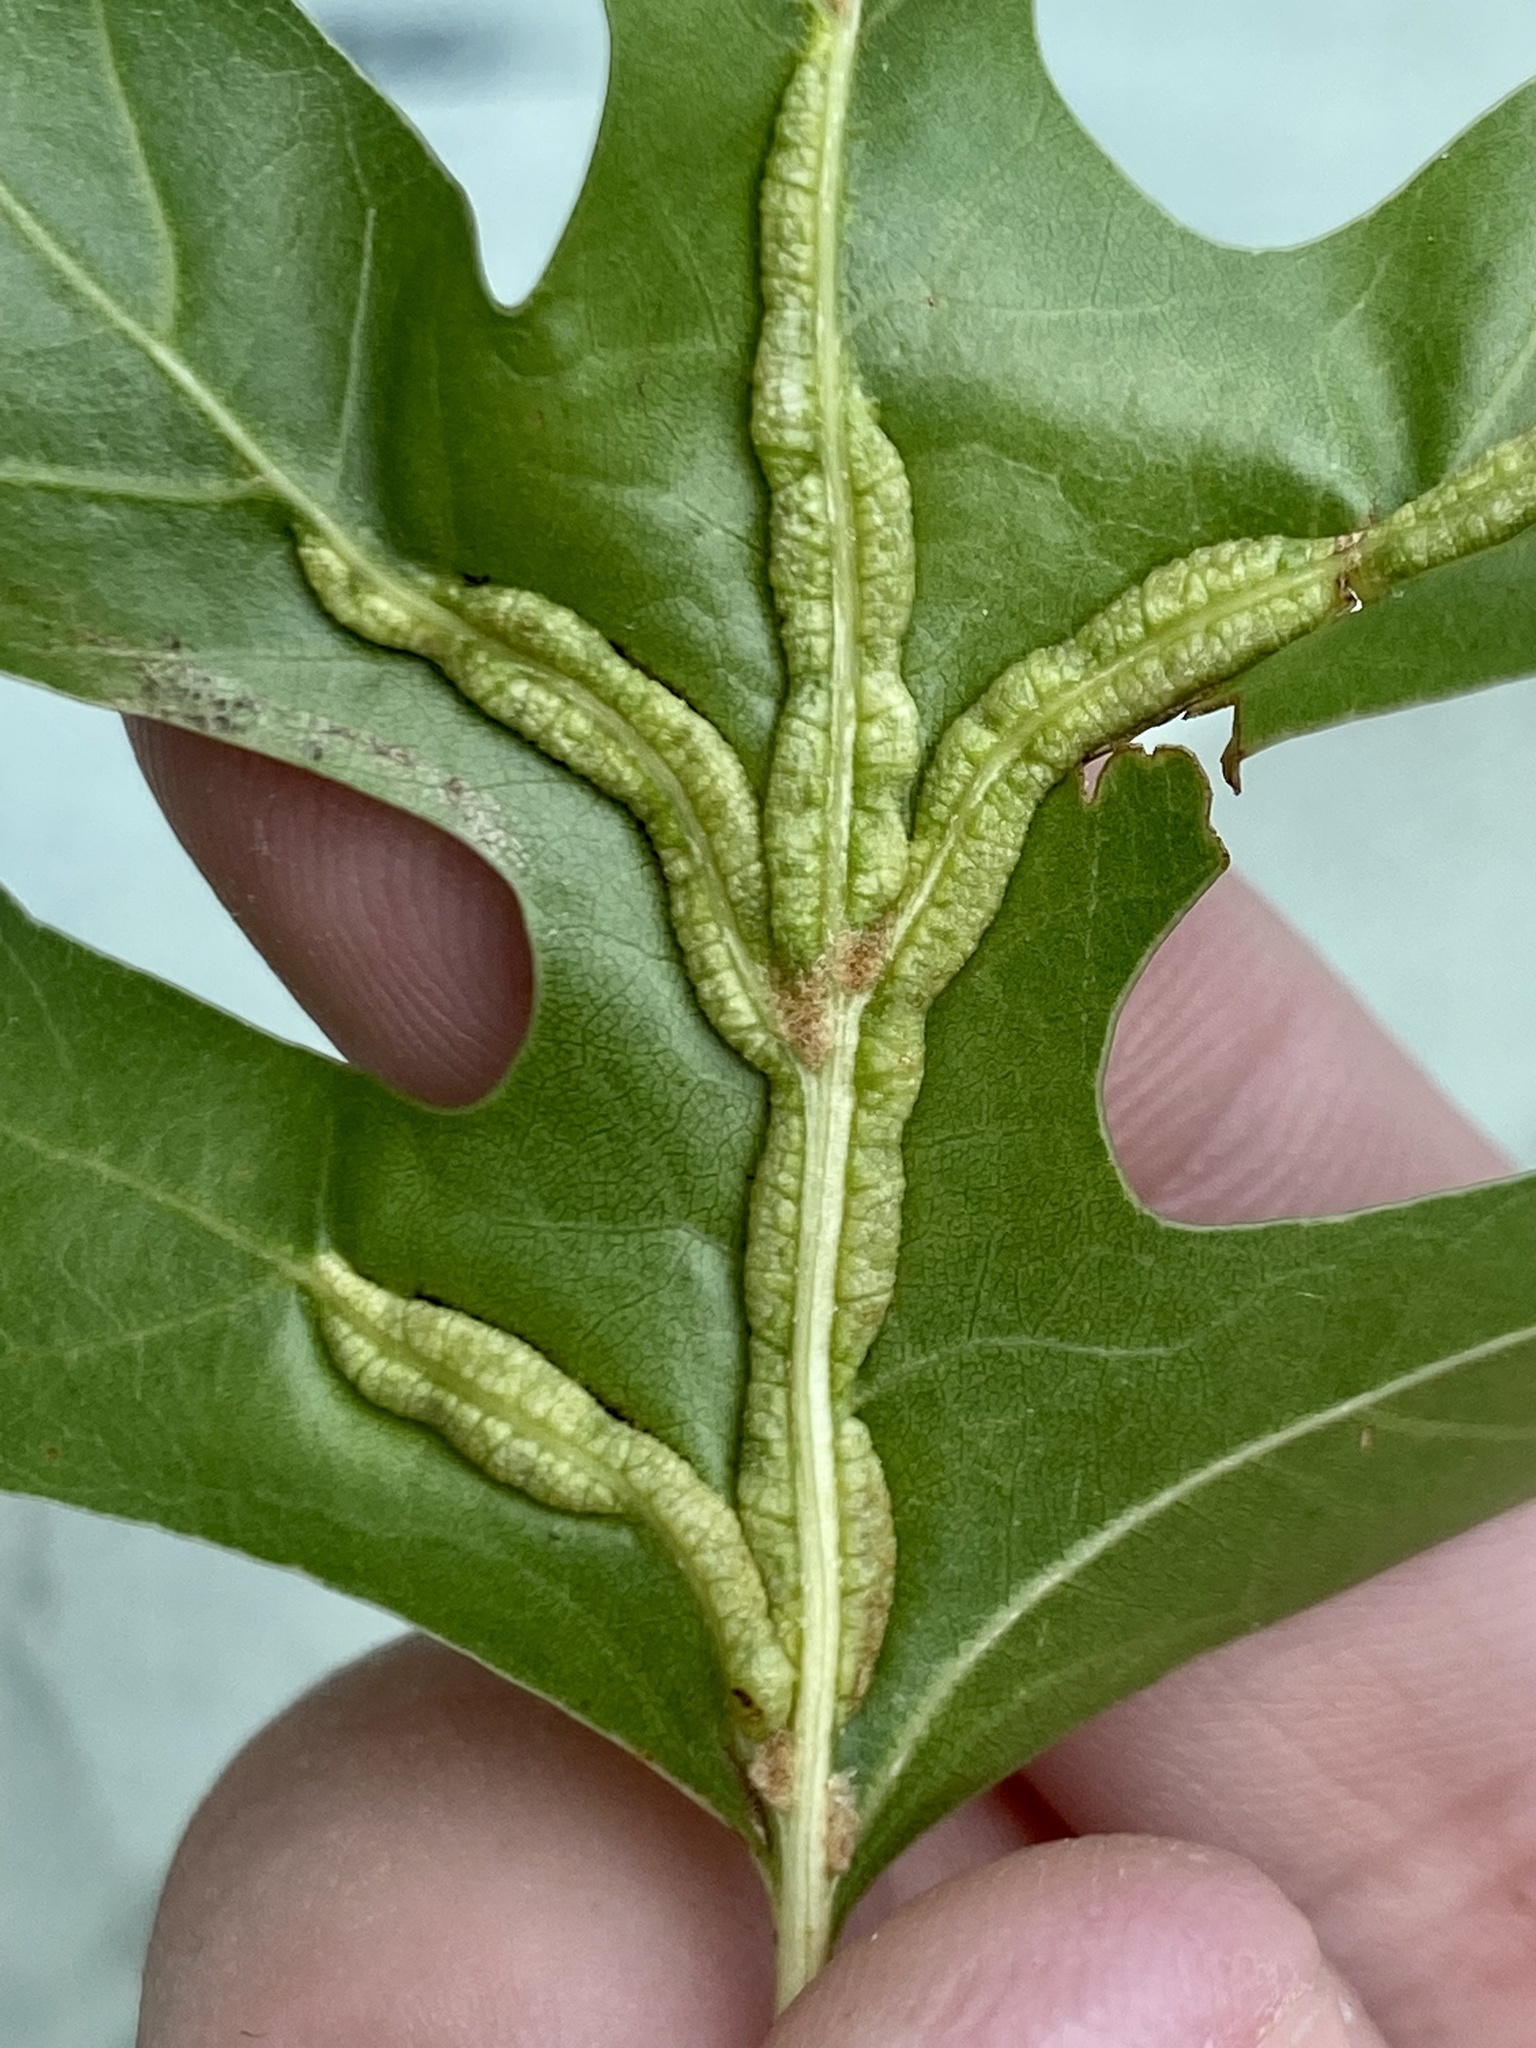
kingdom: Animalia
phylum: Arthropoda
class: Insecta
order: Diptera
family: Cecidomyiidae
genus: Macrodiplosis
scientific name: Macrodiplosis q-orucum
